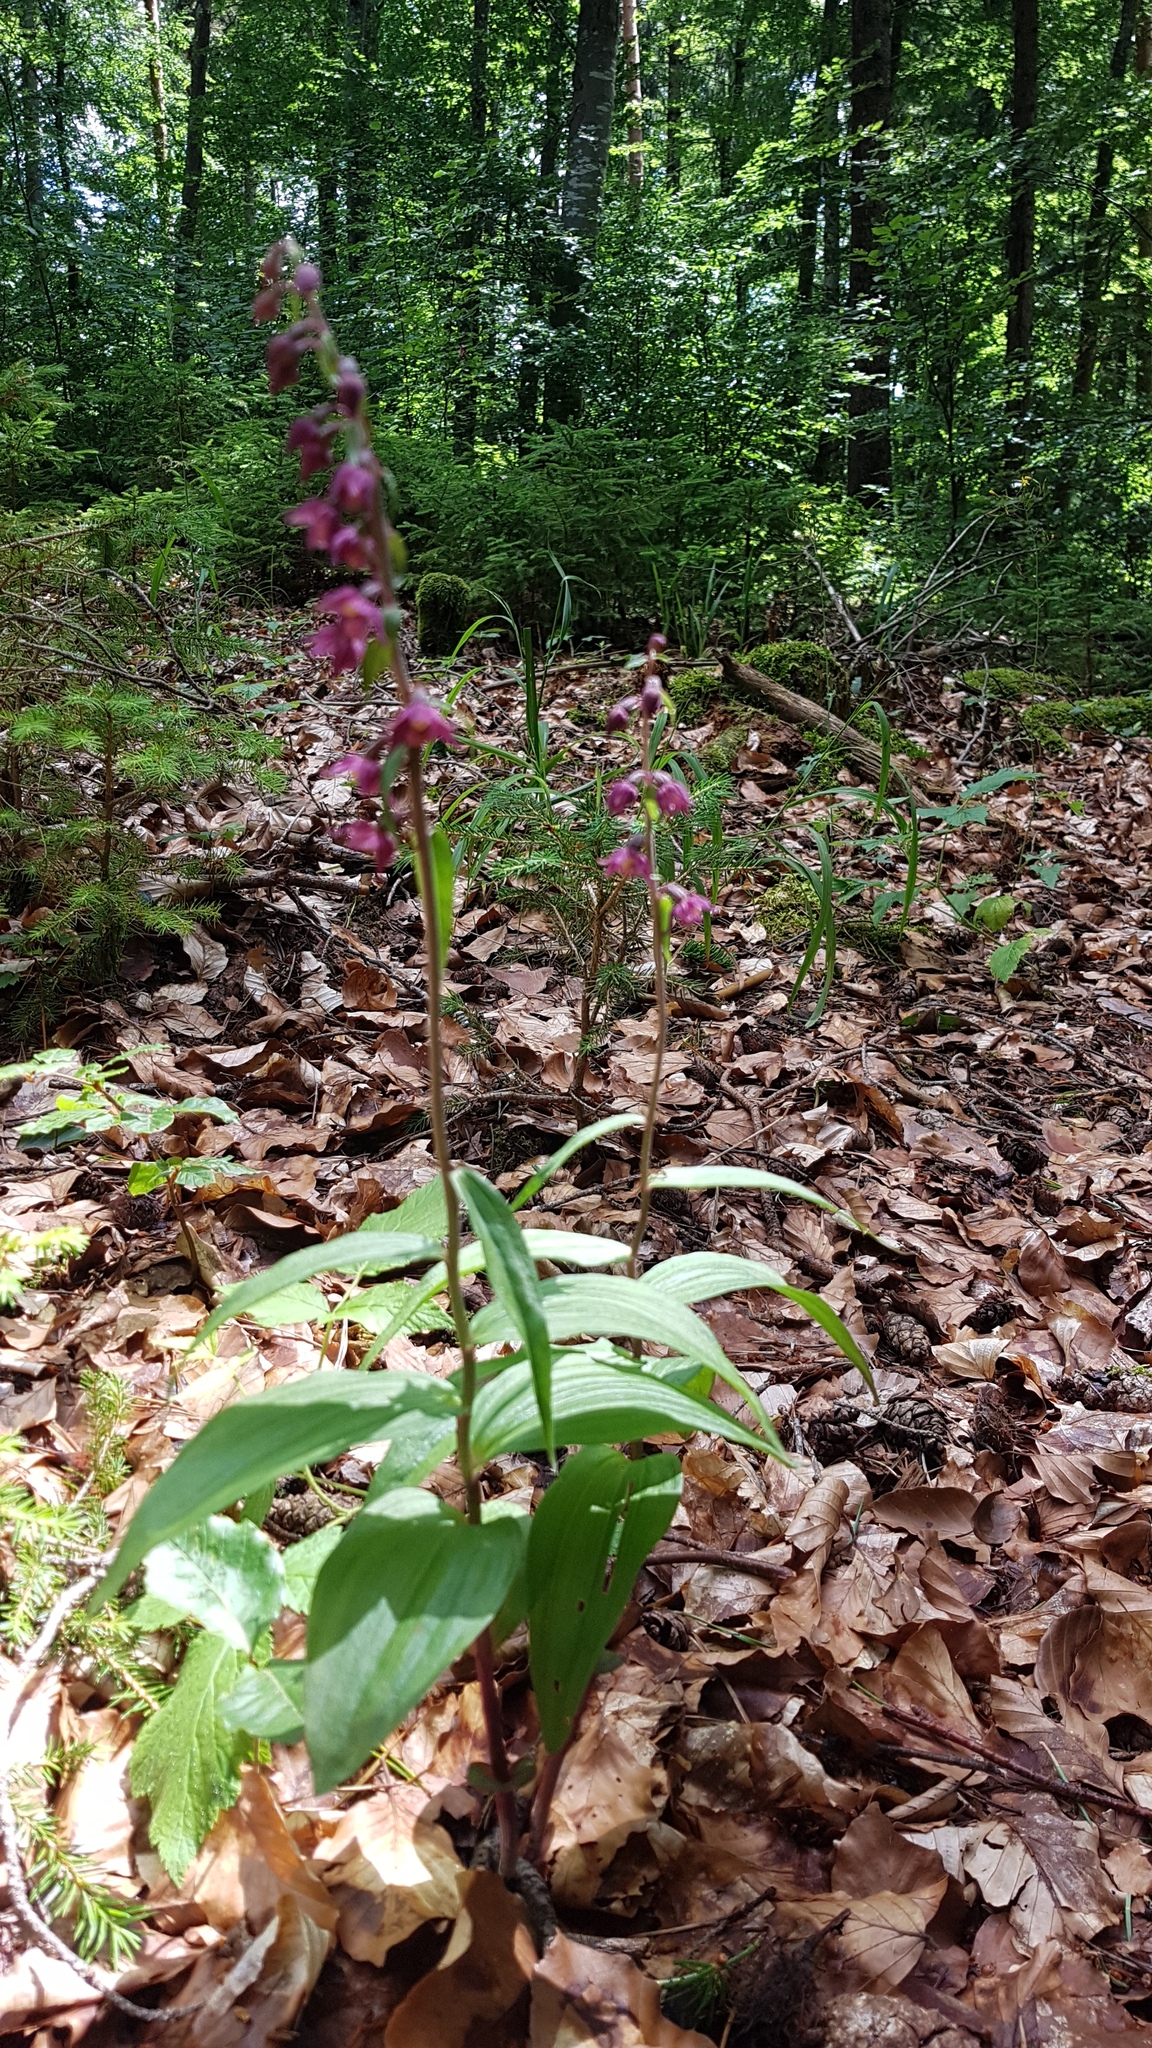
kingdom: Plantae
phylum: Tracheophyta
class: Liliopsida
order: Asparagales
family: Orchidaceae
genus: Epipactis
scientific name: Epipactis atrorubens
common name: Dark-red helleborine
